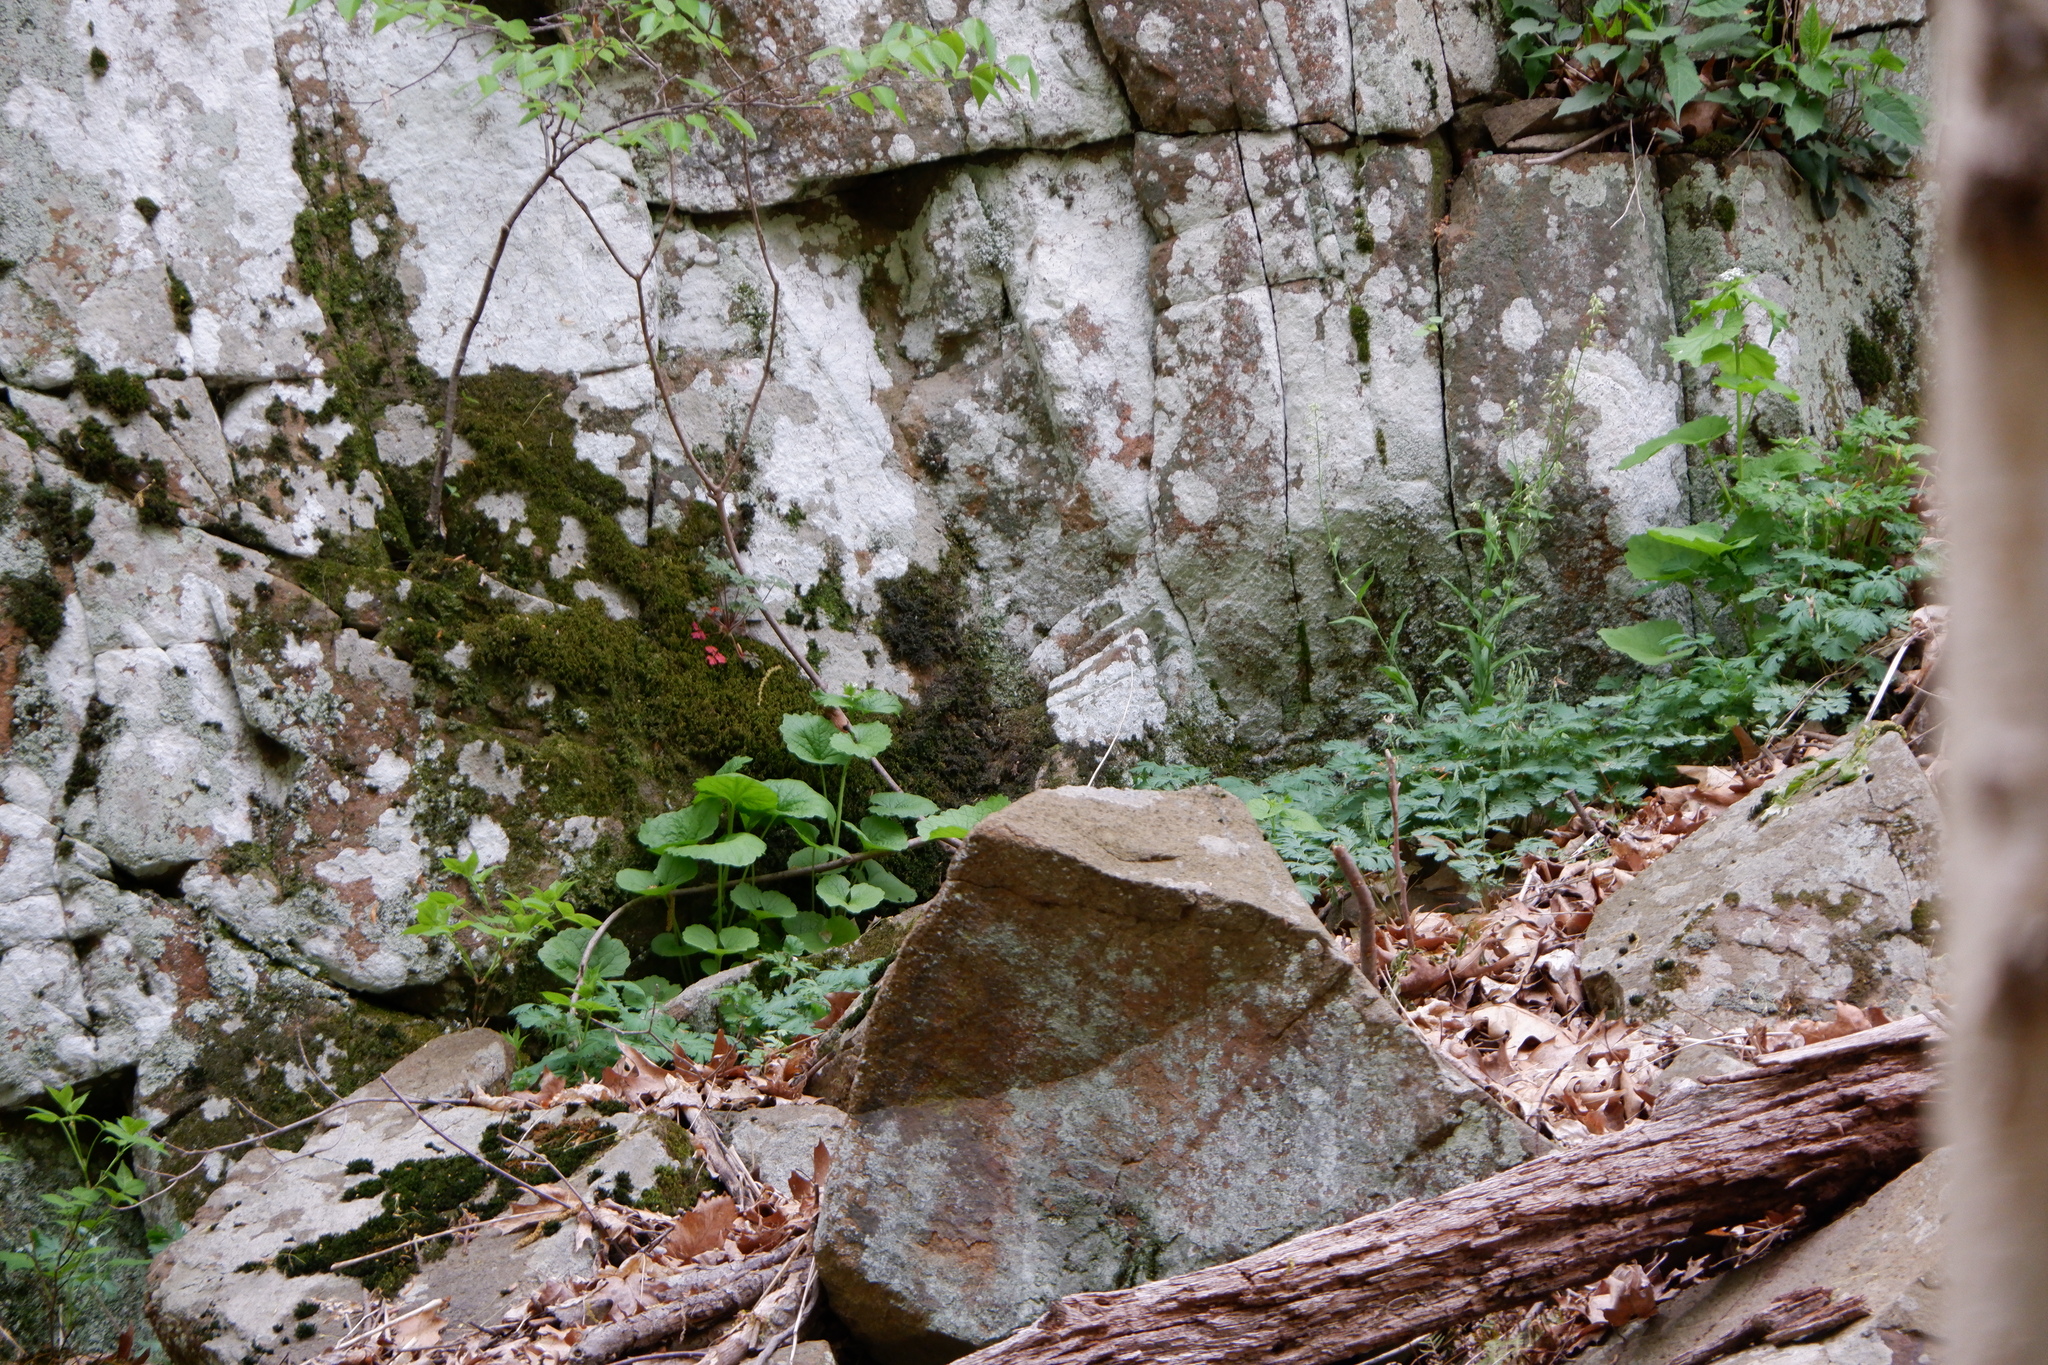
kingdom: Plantae
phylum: Tracheophyta
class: Magnoliopsida
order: Brassicales
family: Brassicaceae
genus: Alliaria
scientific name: Alliaria petiolata
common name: Garlic mustard
